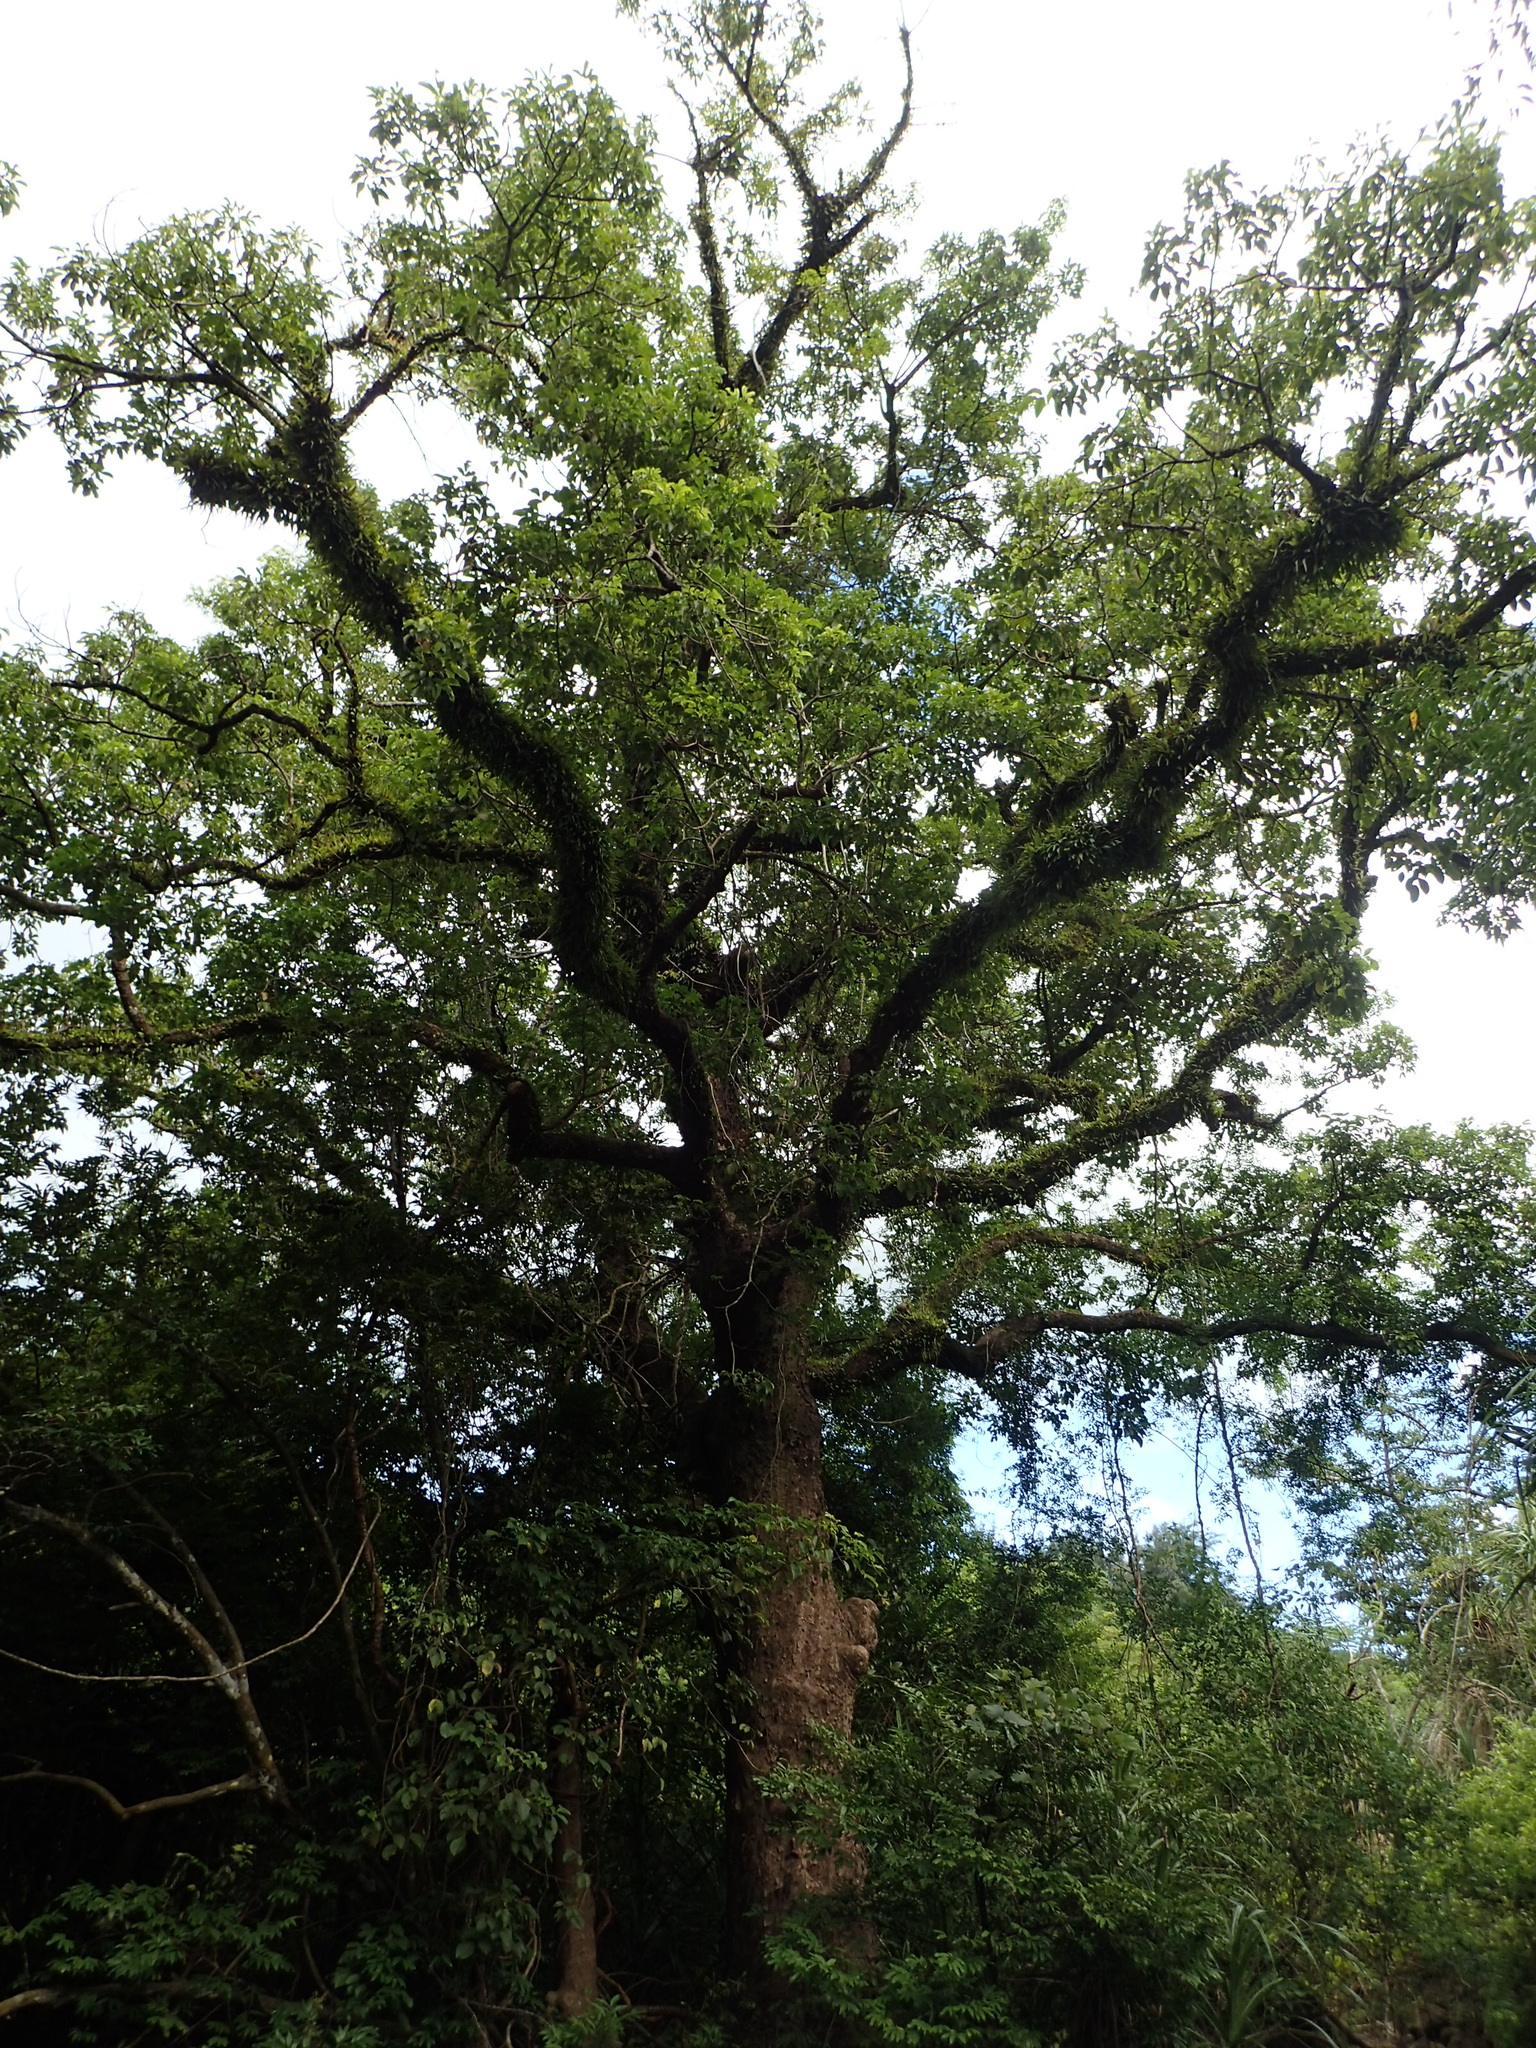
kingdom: Plantae
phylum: Tracheophyta
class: Magnoliopsida
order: Malpighiales
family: Phyllanthaceae
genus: Bischofia
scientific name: Bischofia javanica
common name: Javanese bishopwood
